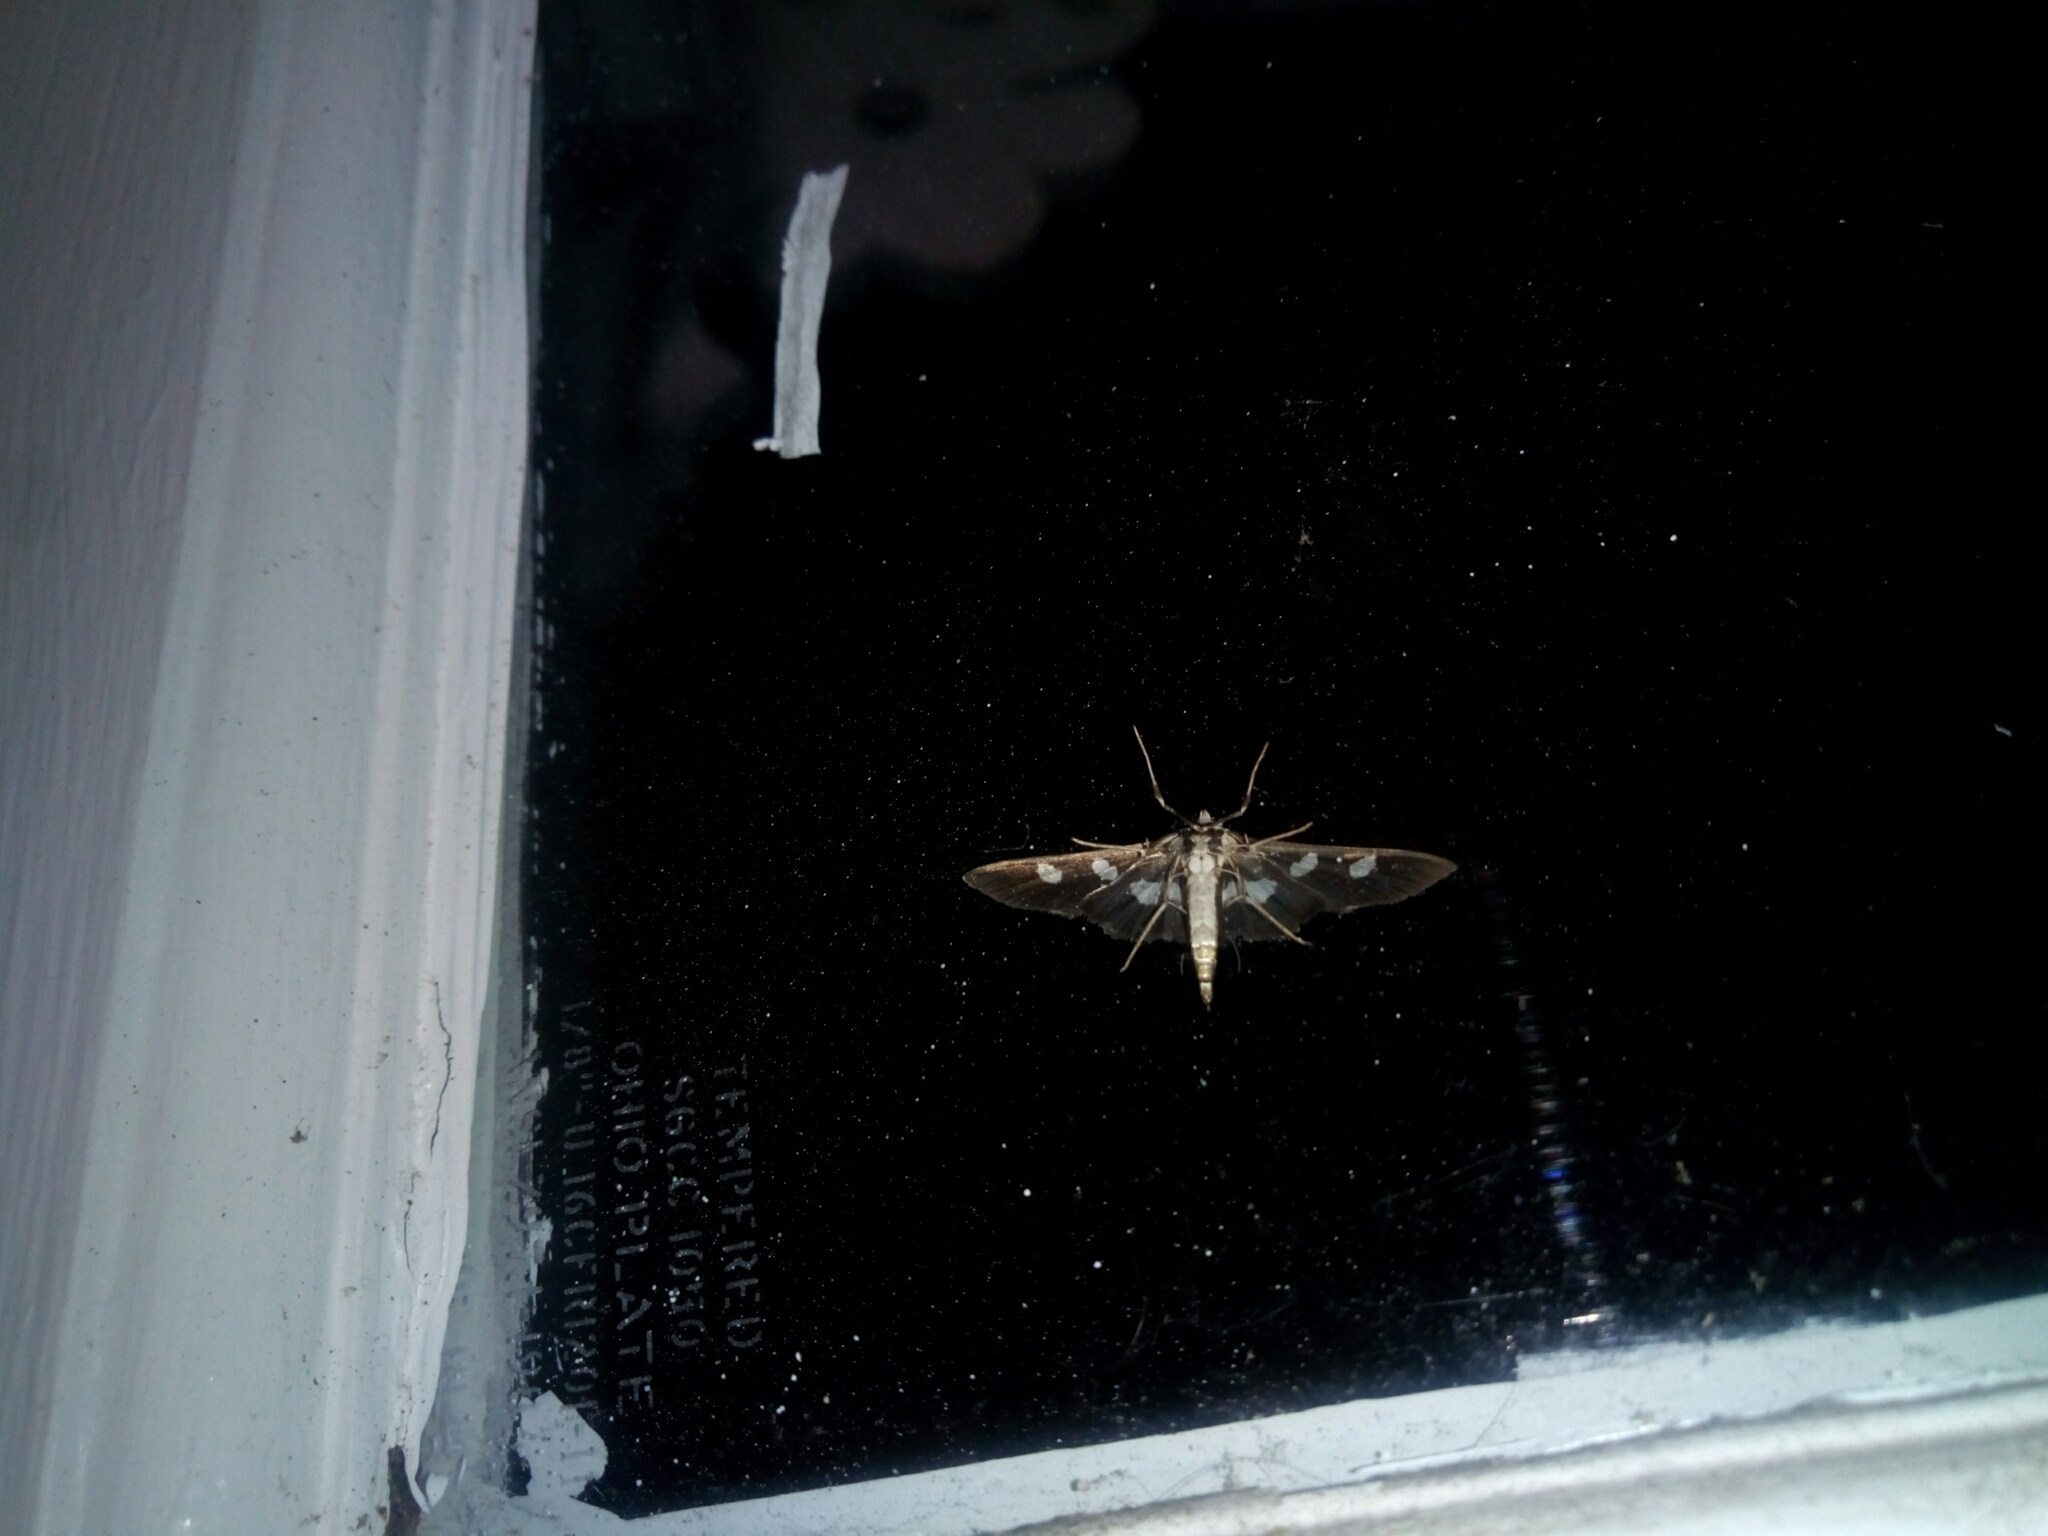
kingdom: Animalia
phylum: Arthropoda
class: Insecta
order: Lepidoptera
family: Crambidae
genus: Desmia
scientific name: Desmia funeralis
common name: Grape leaf folder moth
